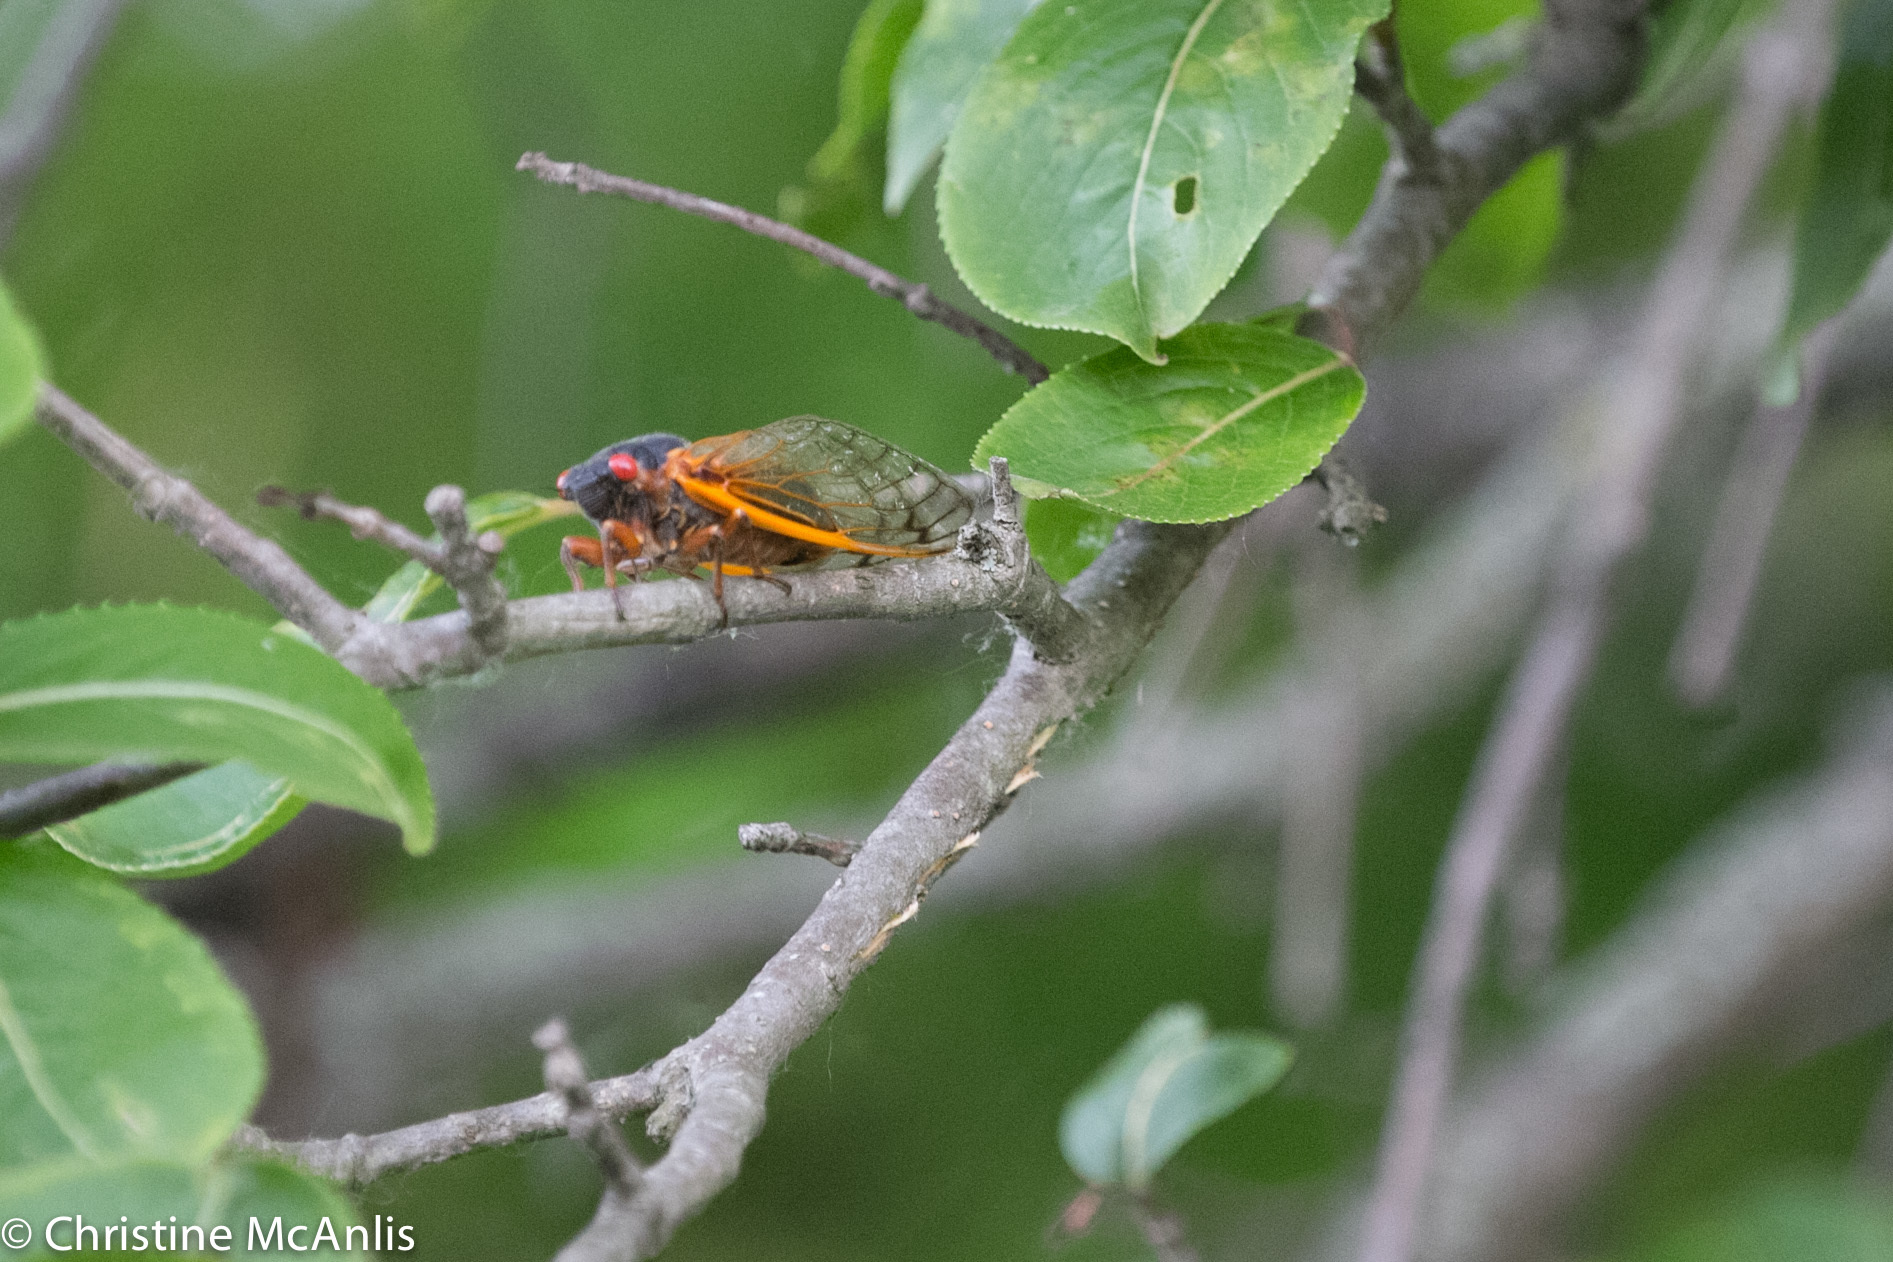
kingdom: Animalia
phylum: Arthropoda
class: Insecta
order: Hemiptera
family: Cicadidae
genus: Magicicada
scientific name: Magicicada septendecim
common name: Periodical cicada
